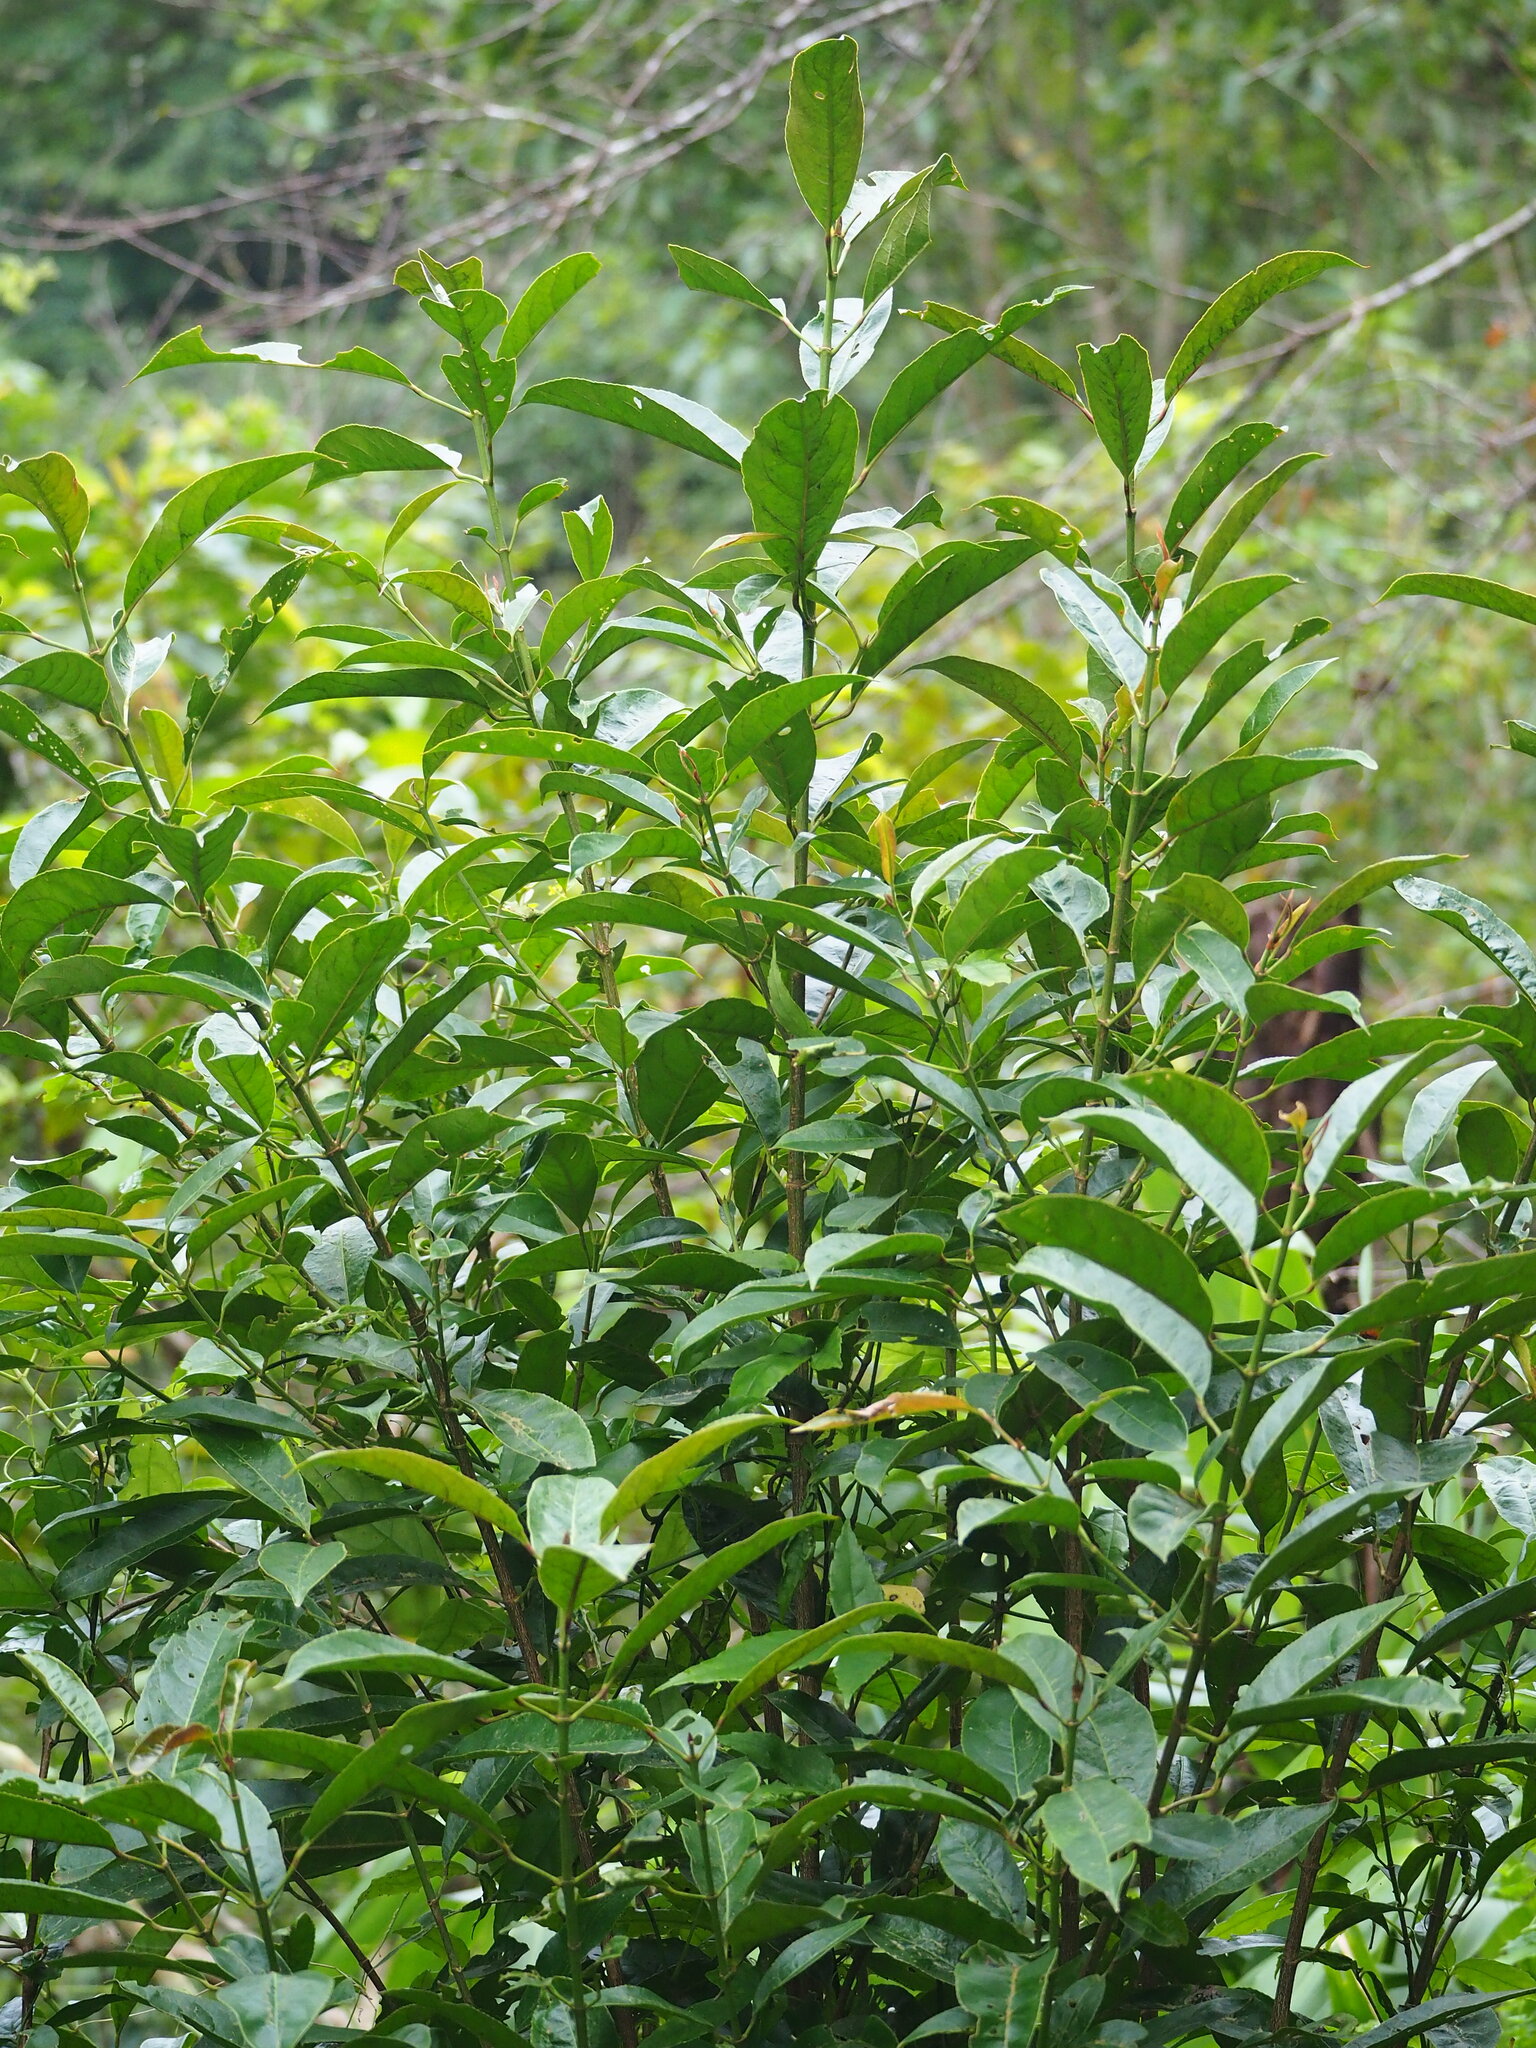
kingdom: Plantae
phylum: Tracheophyta
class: Magnoliopsida
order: Crossosomatales
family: Staphyleaceae
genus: Turpinia
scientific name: Turpinia formosana
